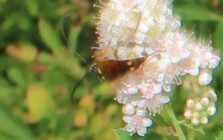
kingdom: Animalia
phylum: Arthropoda
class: Insecta
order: Coleoptera
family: Cerambycidae
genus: Typocerus
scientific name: Typocerus acuticauda
